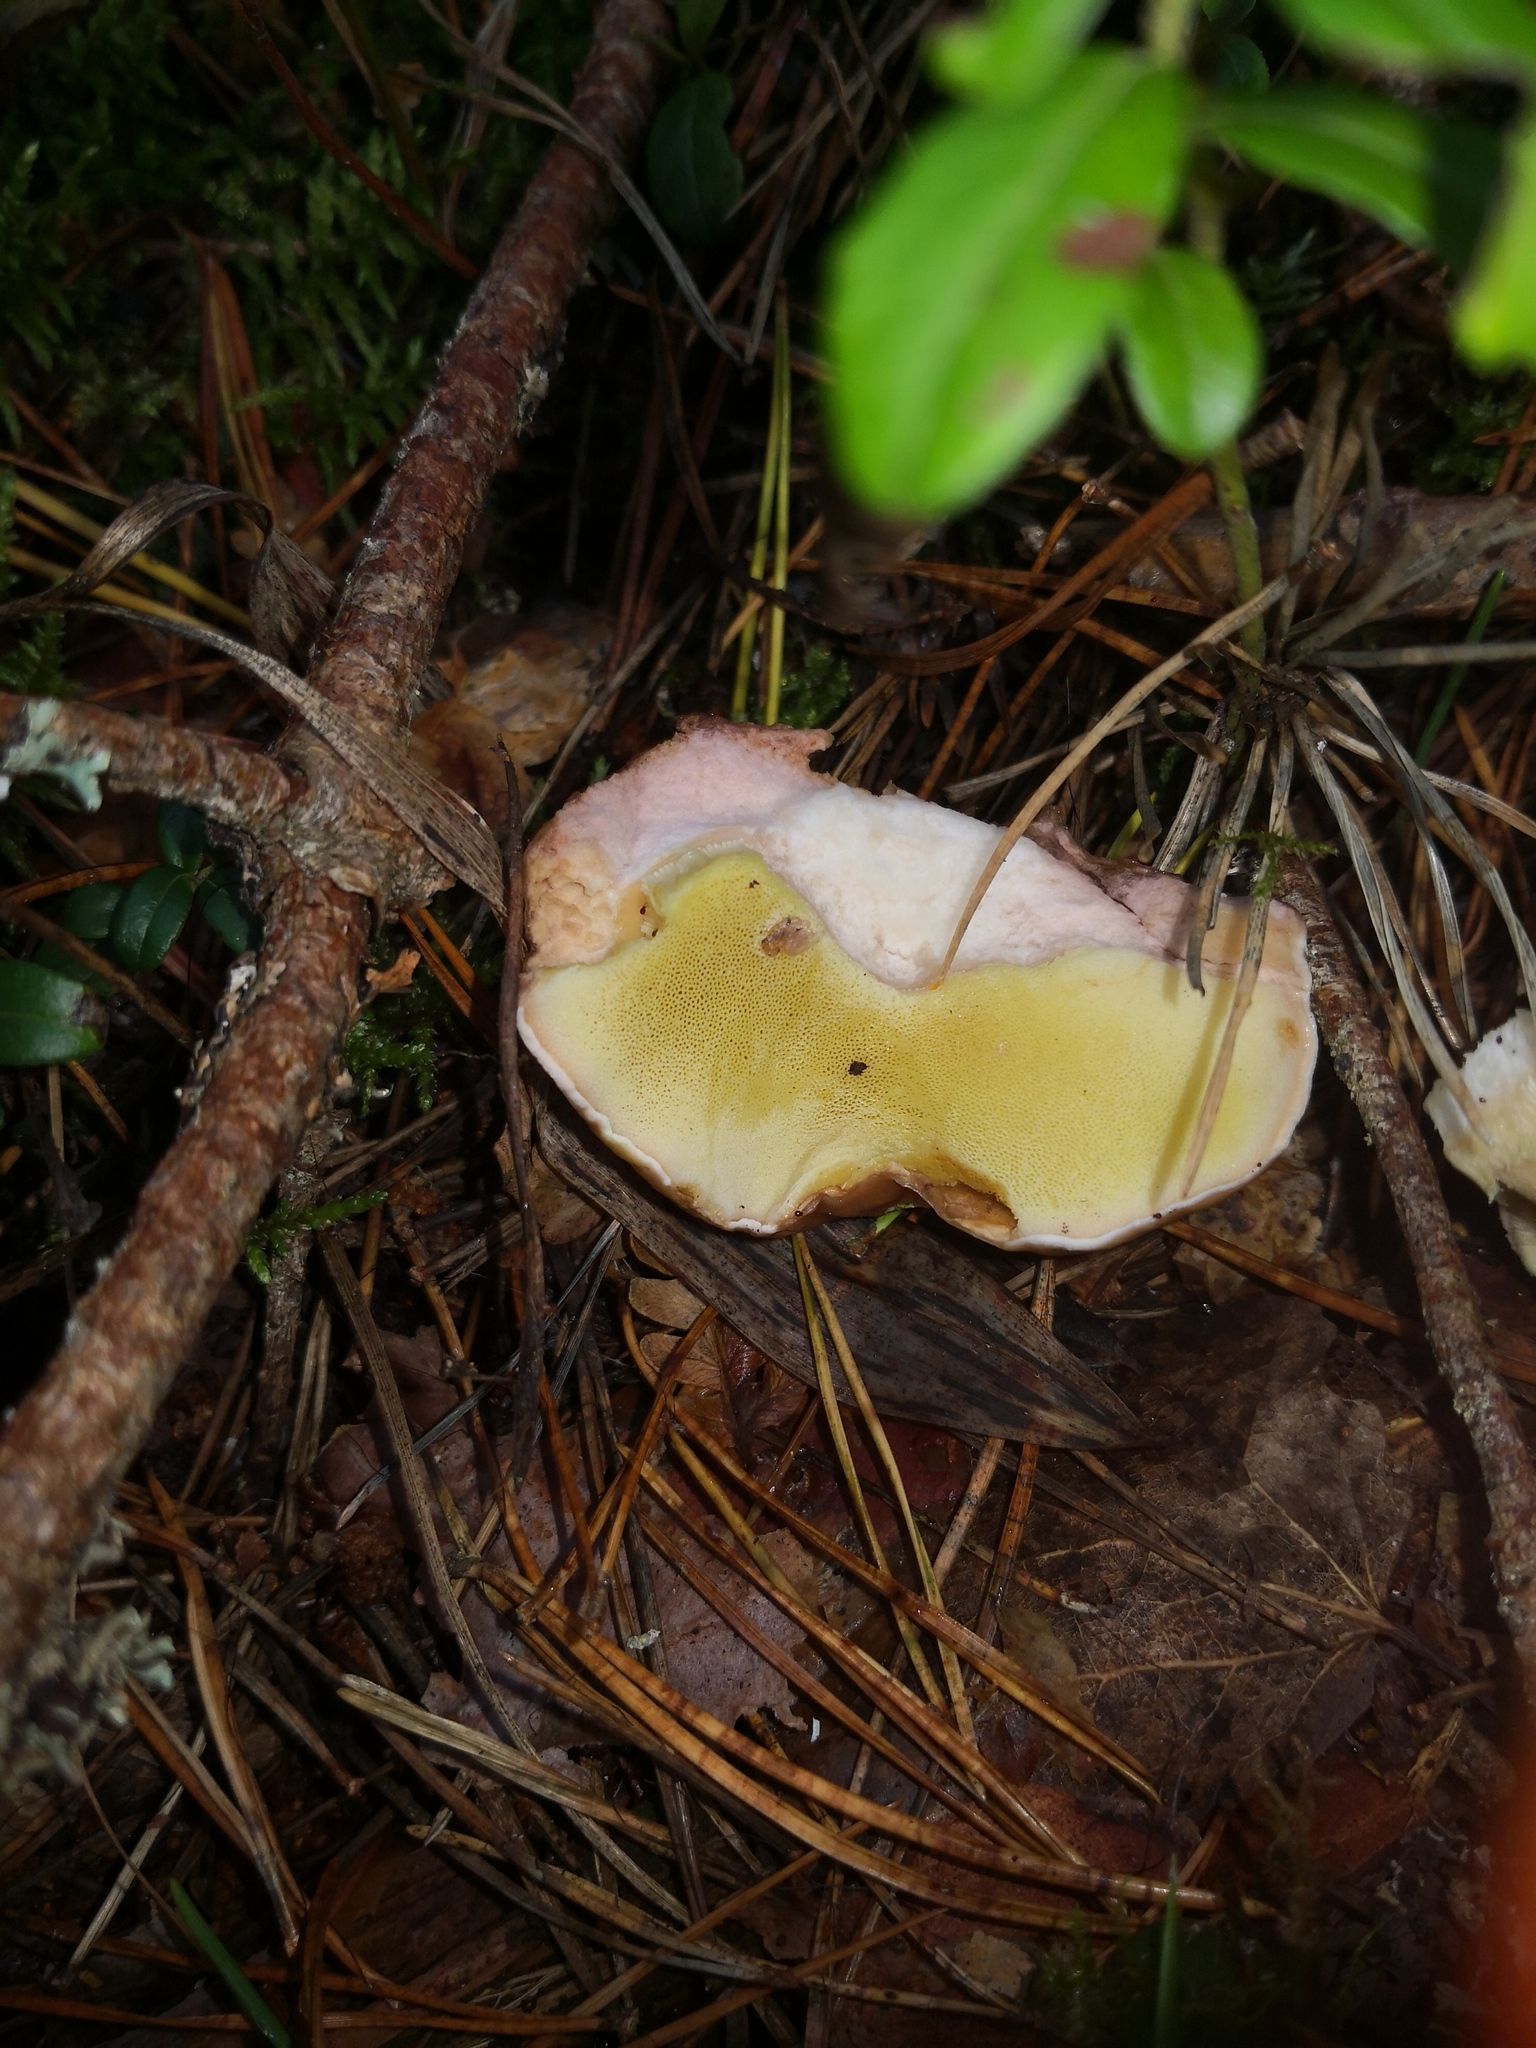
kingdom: Fungi
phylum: Basidiomycota
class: Agaricomycetes
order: Boletales
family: Boletaceae
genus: Boletus
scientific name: Boletus edulis
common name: Cep
